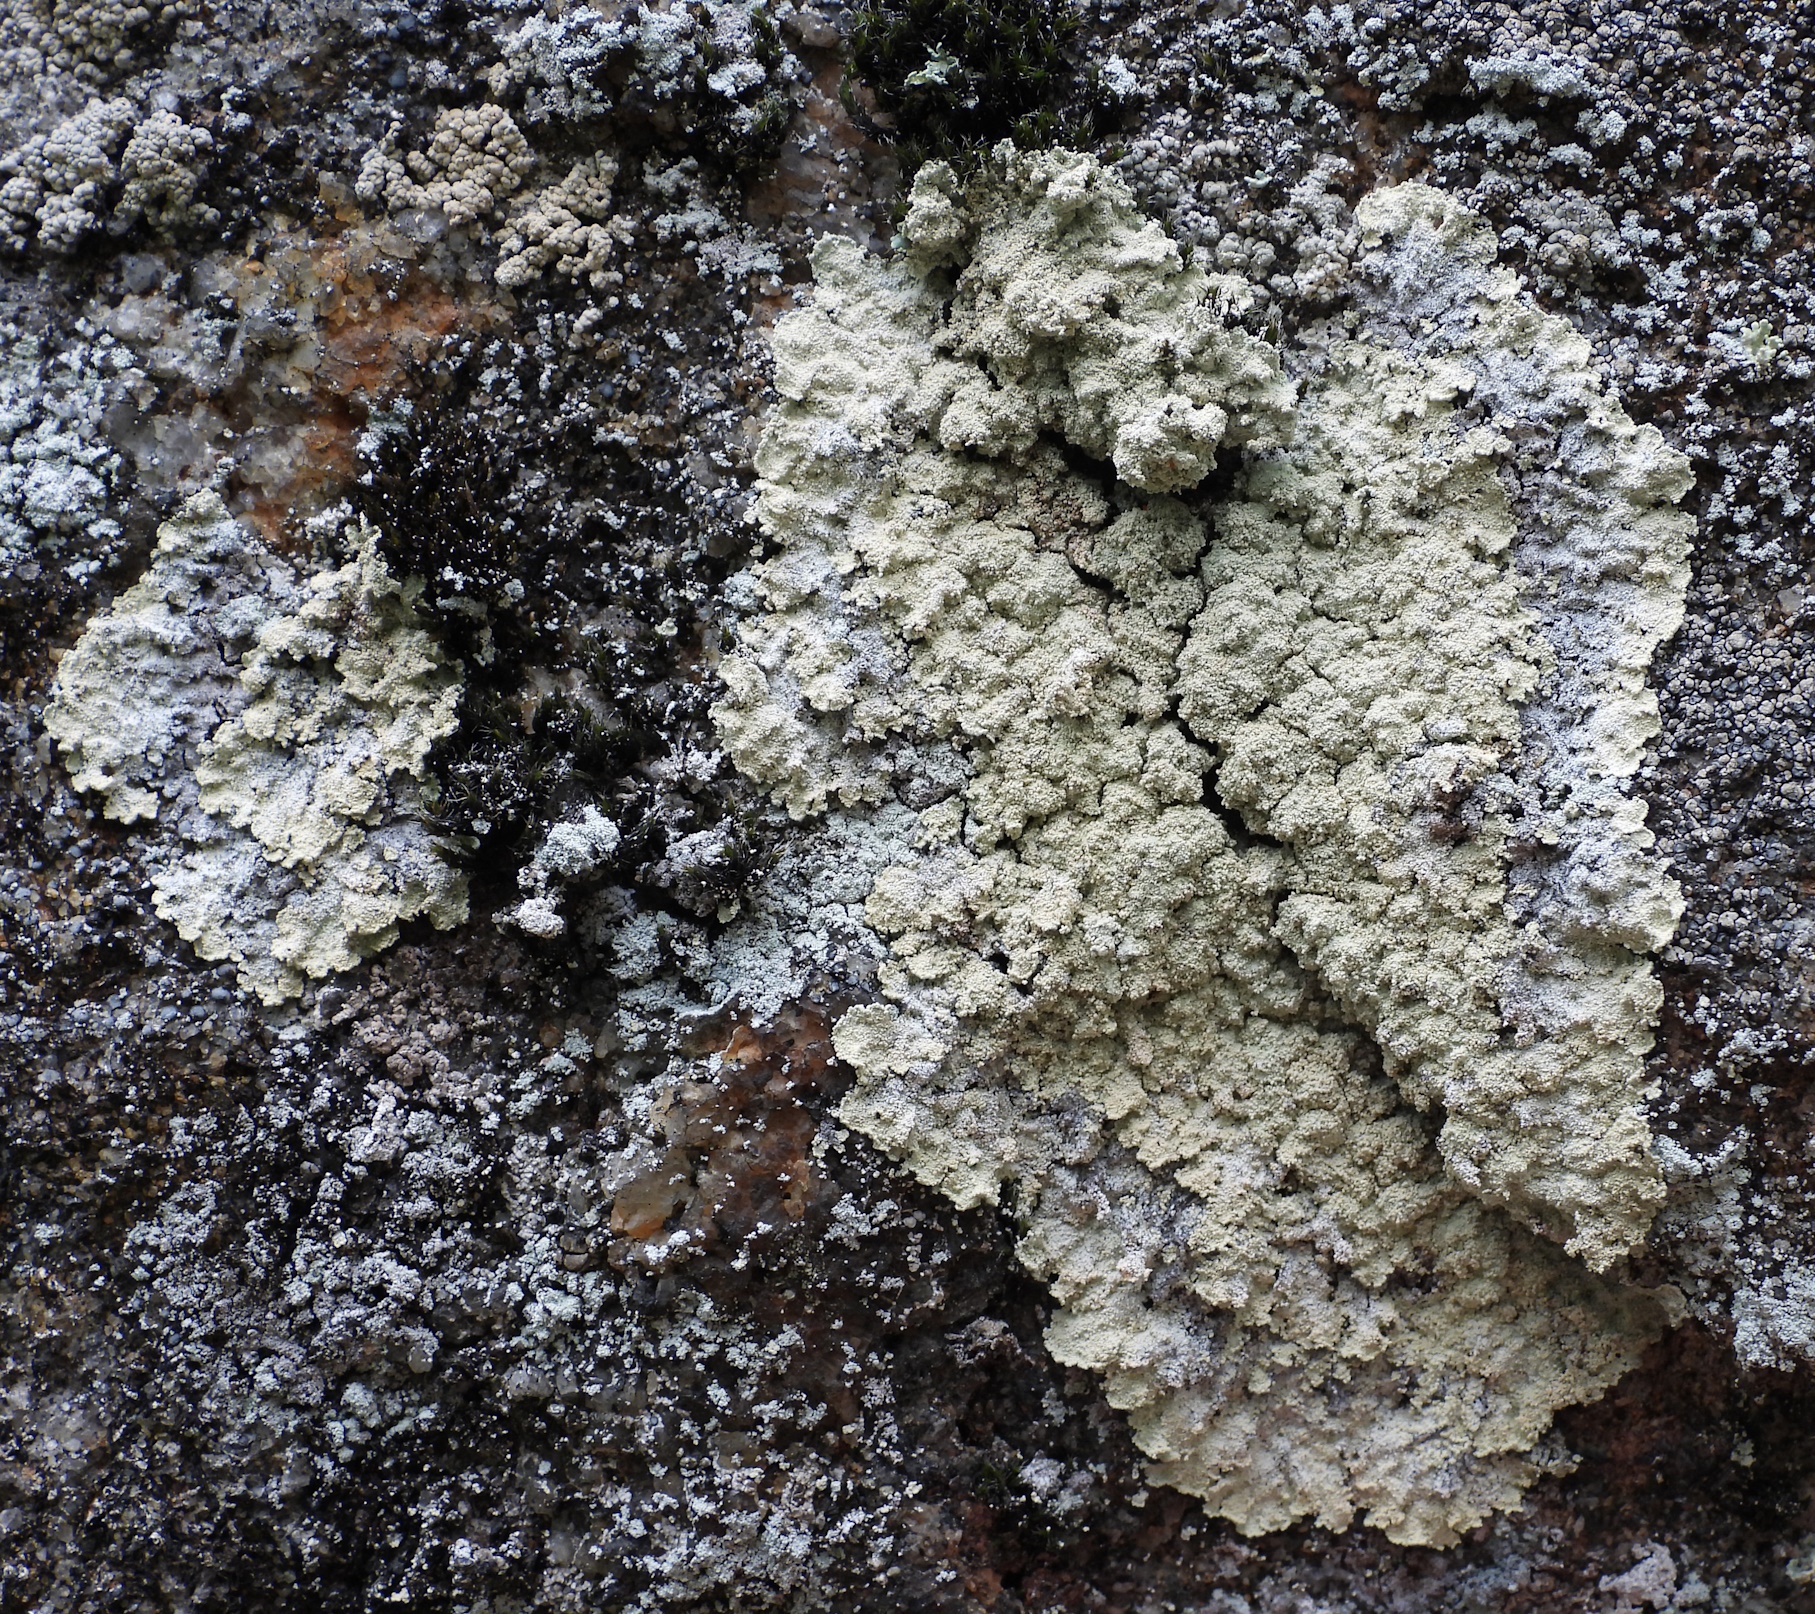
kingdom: Fungi
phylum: Ascomycota
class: Lecanoromycetes
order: Lecanorales
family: Stereocaulaceae
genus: Lepraria
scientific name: Lepraria membranacea
